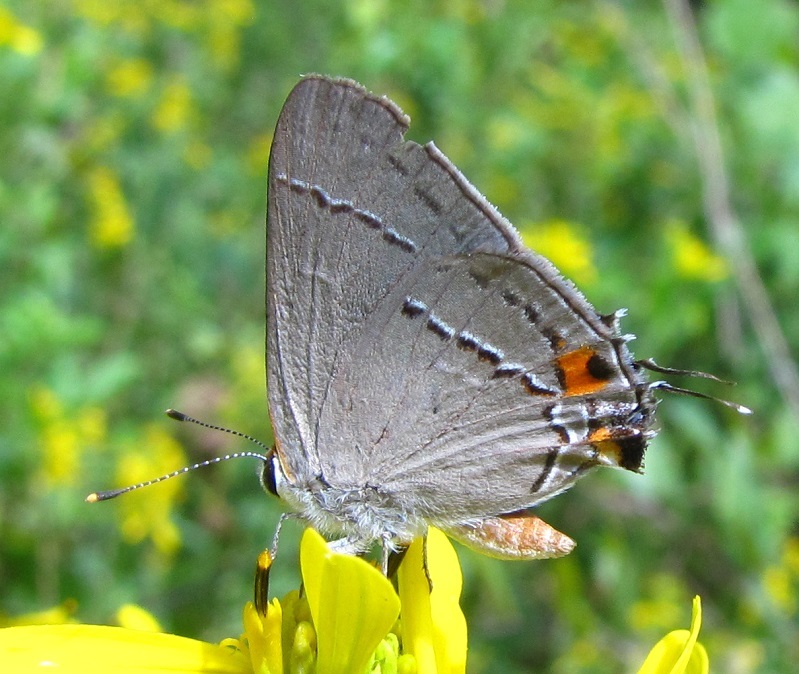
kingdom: Animalia
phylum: Arthropoda
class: Insecta
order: Lepidoptera
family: Lycaenidae
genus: Strymon
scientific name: Strymon melinus
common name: Gray hairstreak
